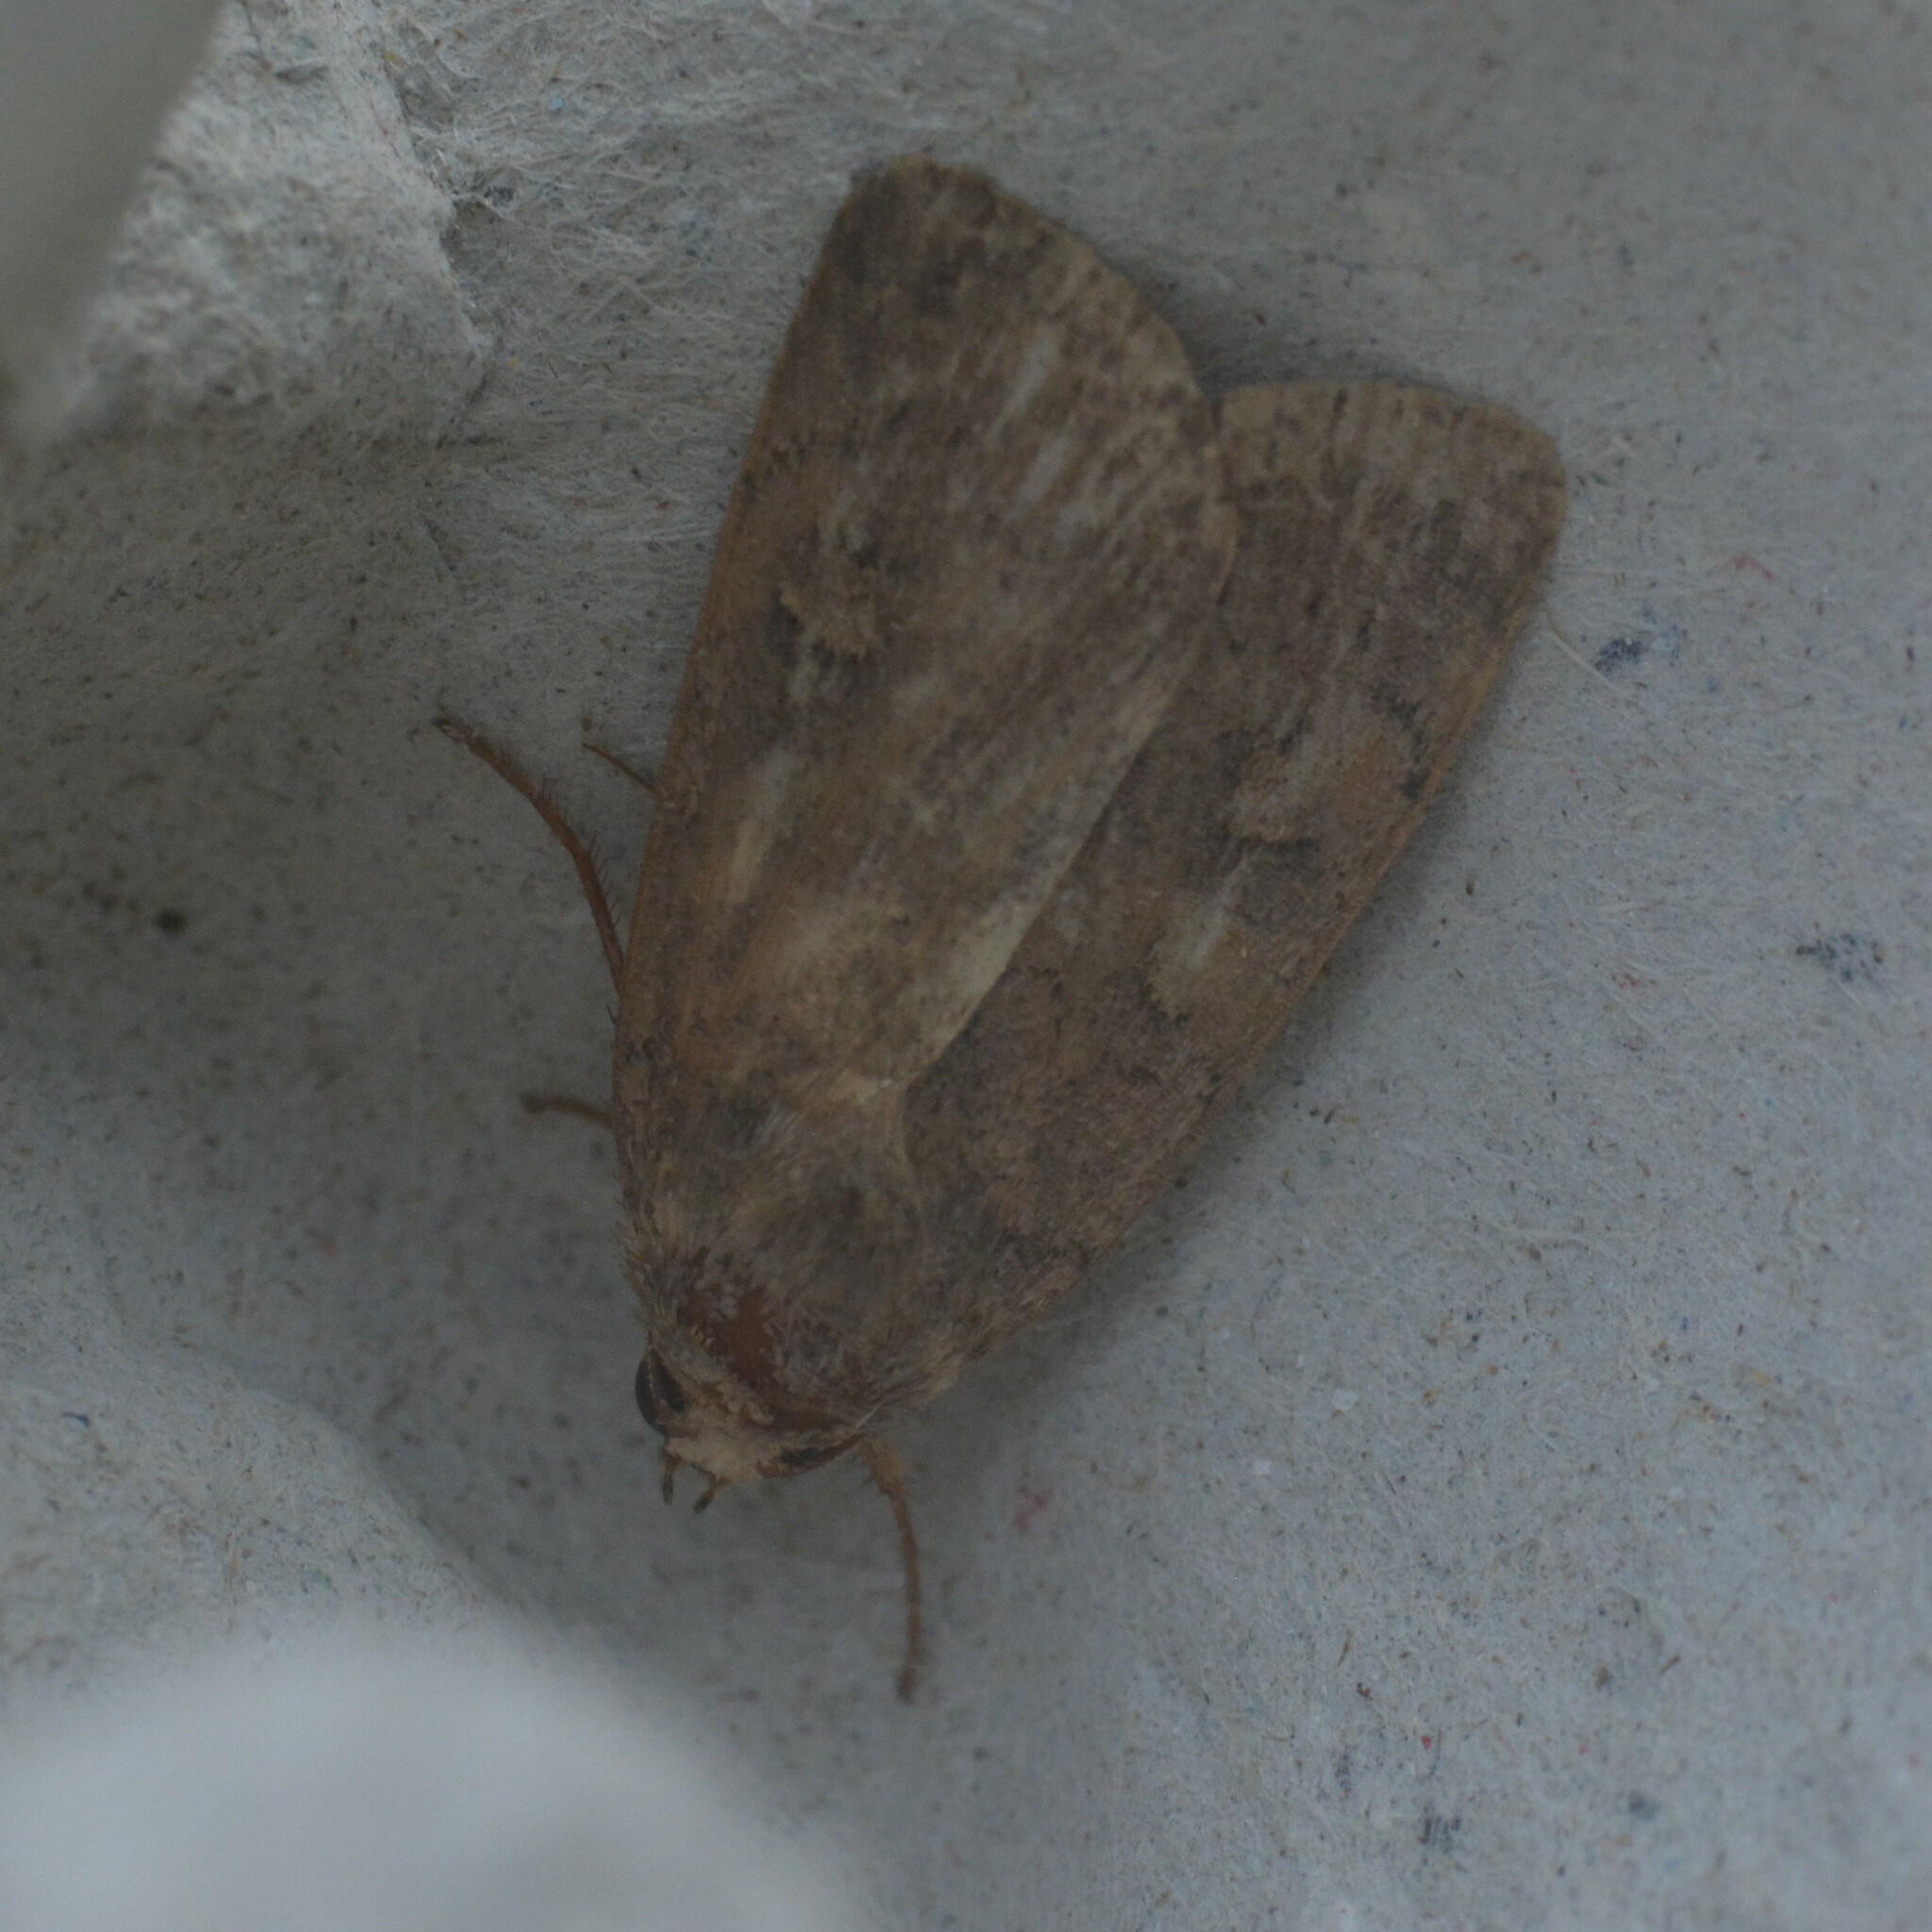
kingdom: Animalia
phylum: Arthropoda
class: Insecta
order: Lepidoptera
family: Noctuidae
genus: Xestia
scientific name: Xestia xanthographa
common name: Square-spot rustic
